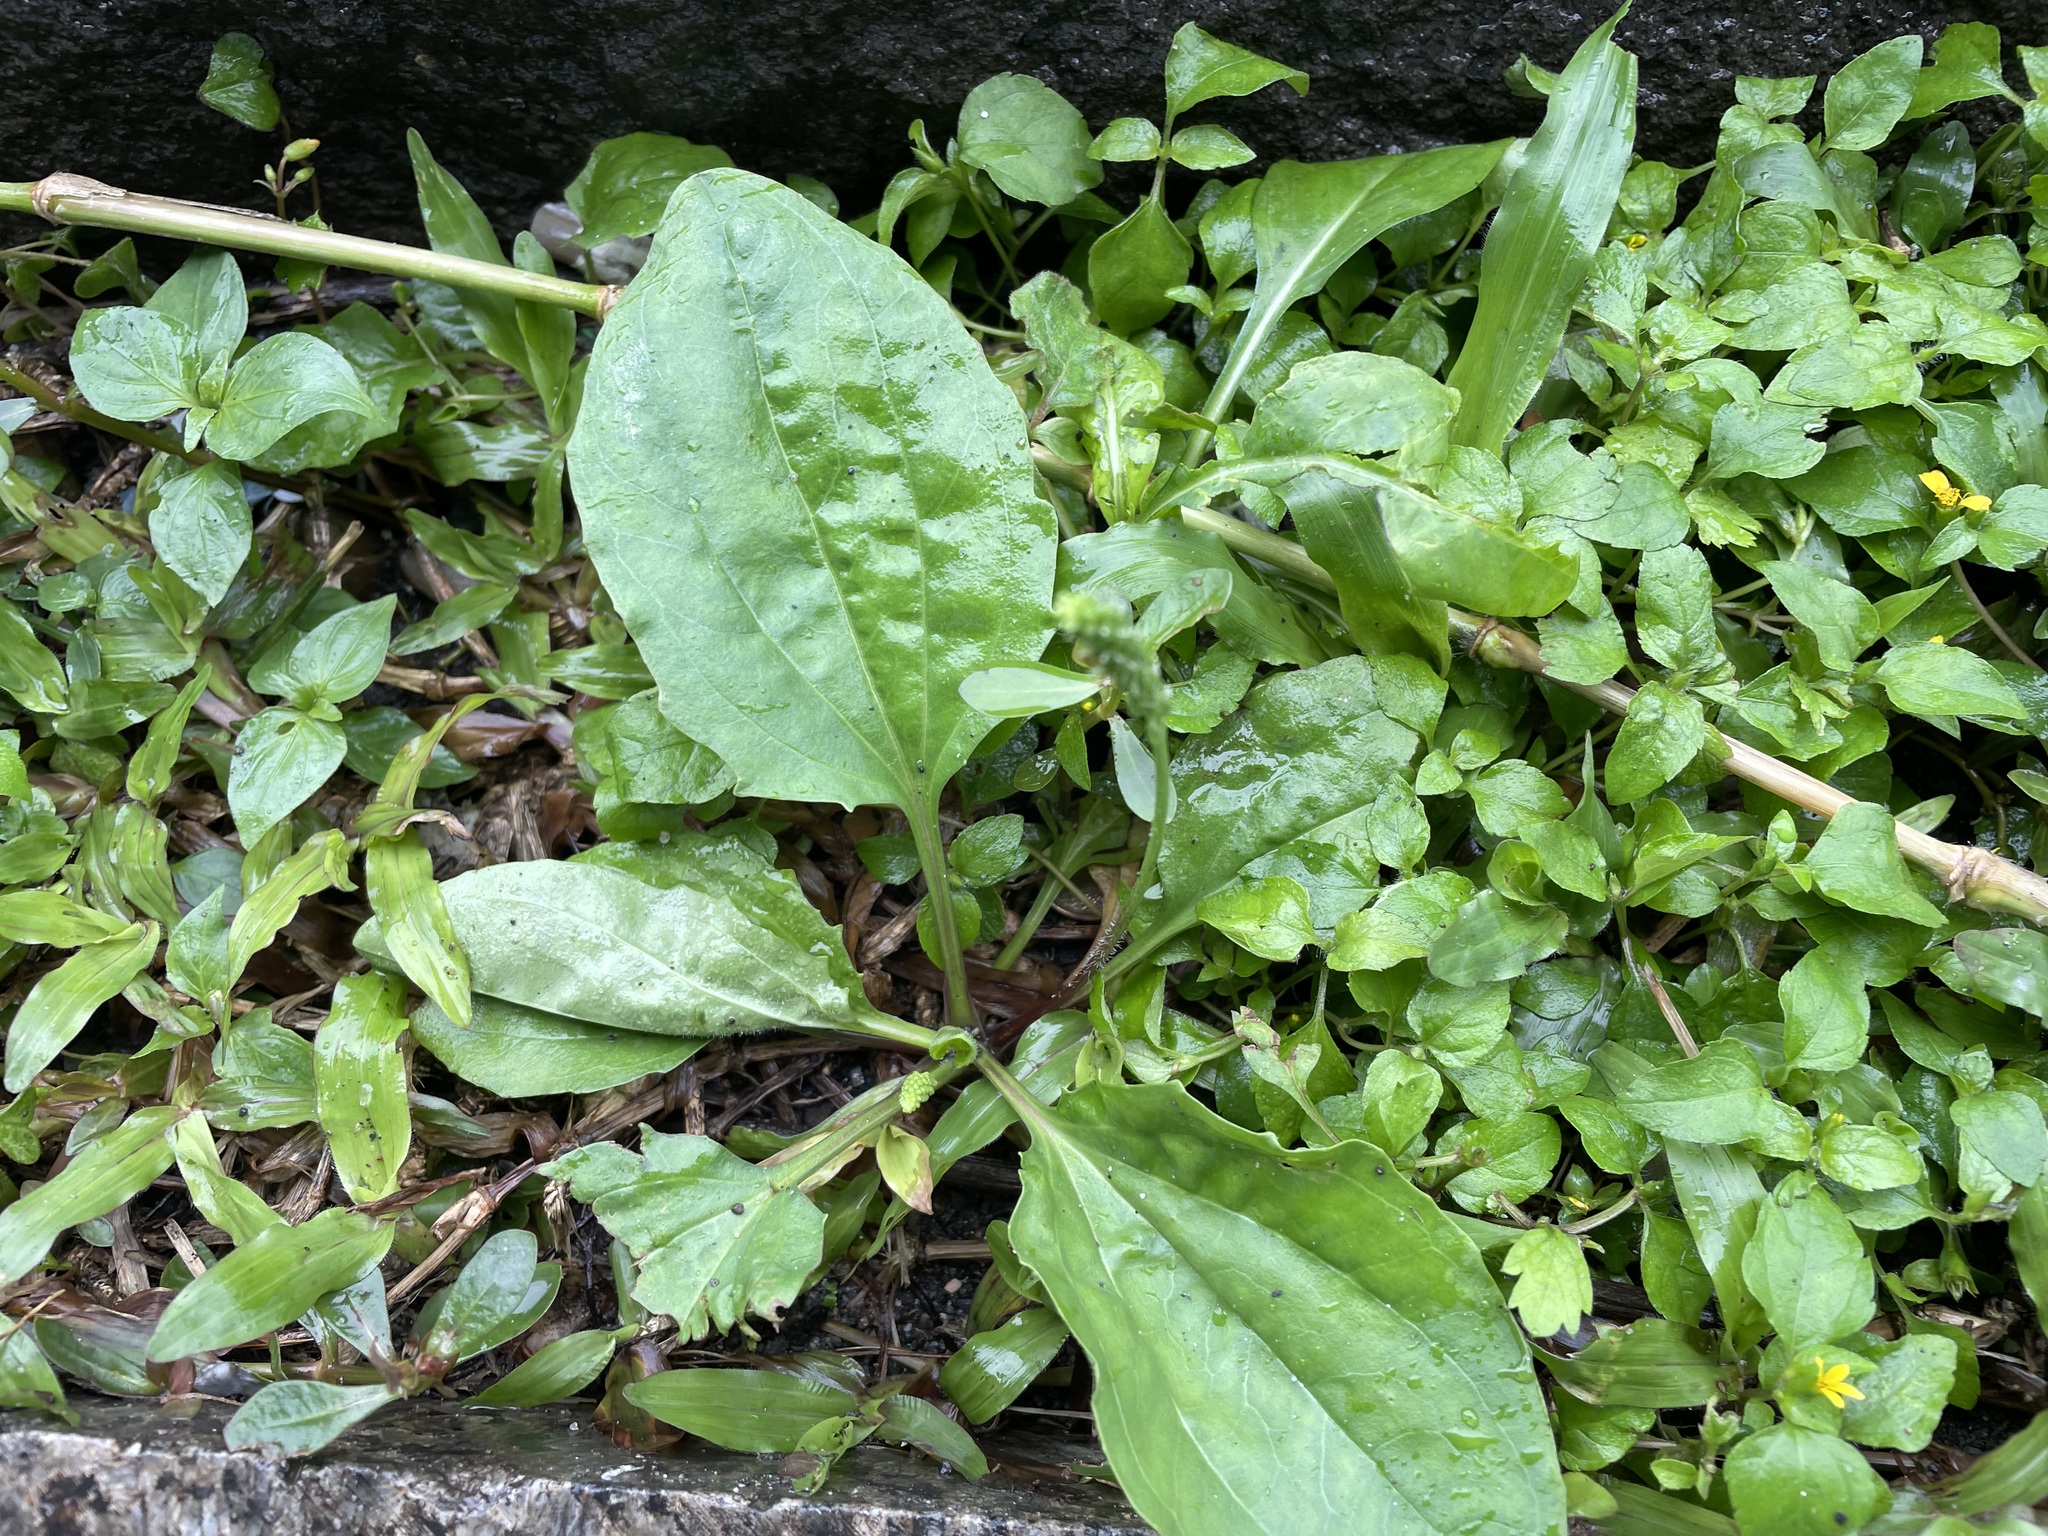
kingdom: Plantae
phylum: Tracheophyta
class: Magnoliopsida
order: Lamiales
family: Plantaginaceae
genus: Plantago
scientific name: Plantago asiatica
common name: Psyllium
